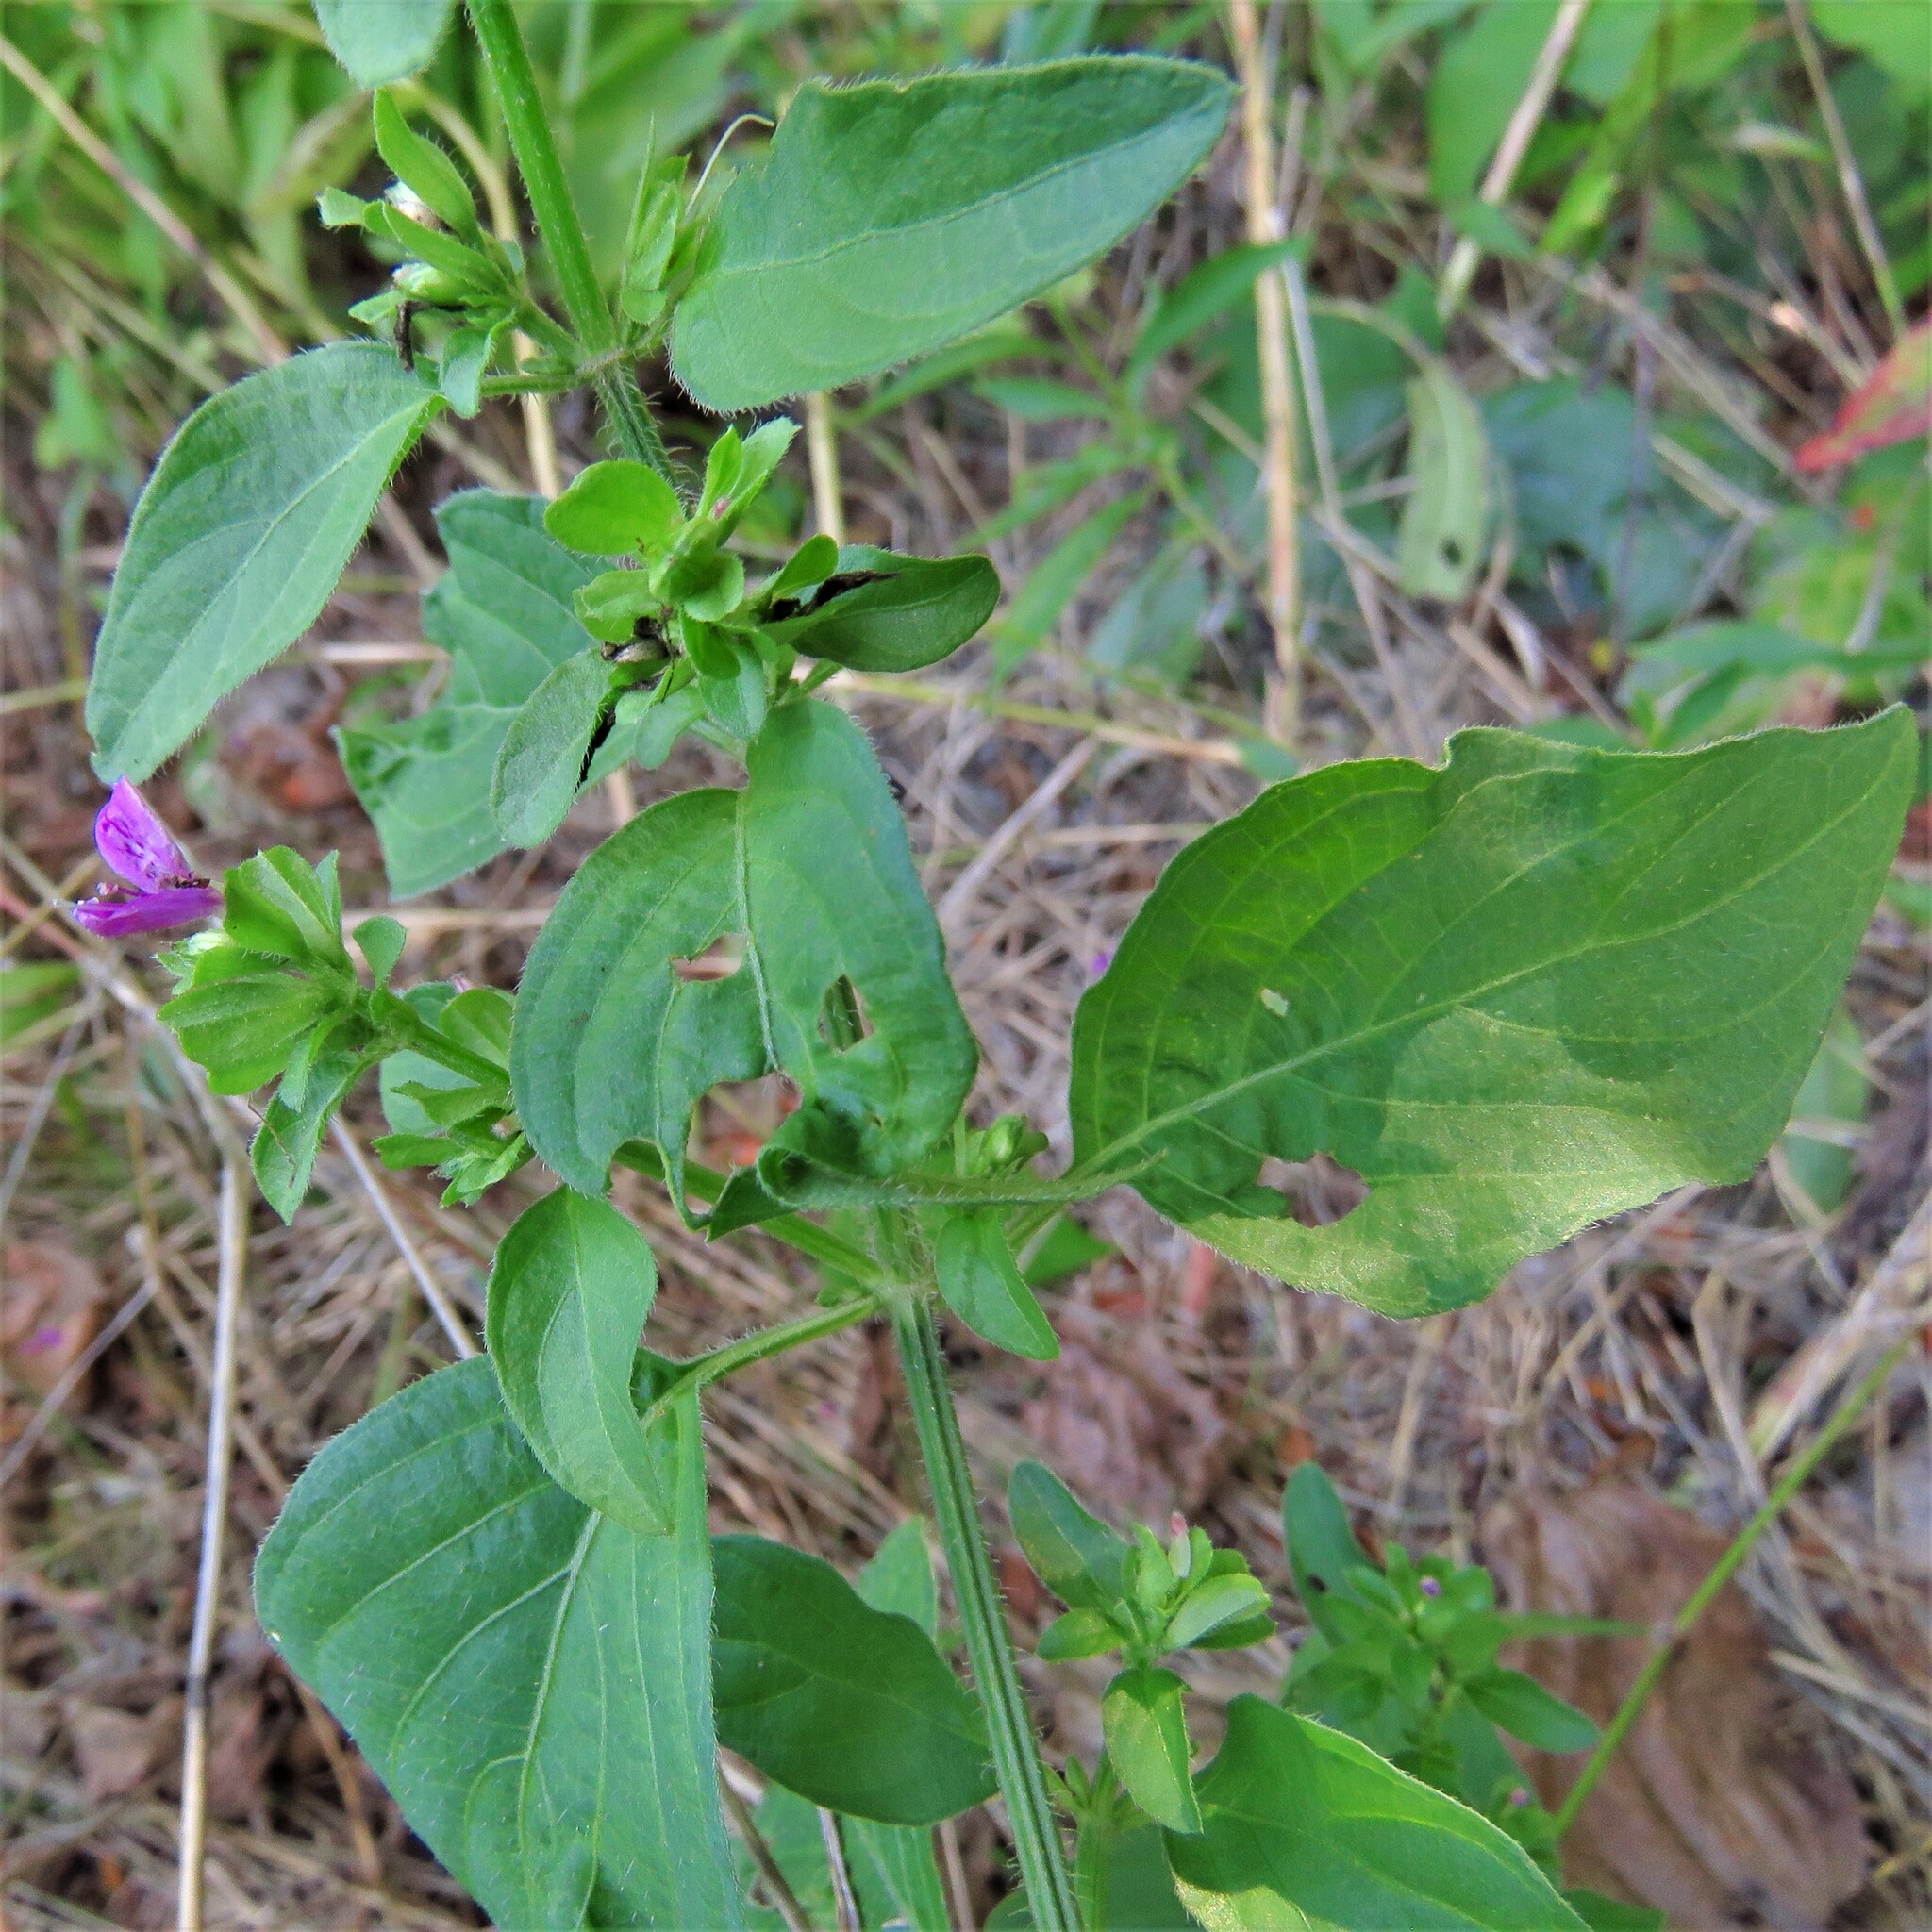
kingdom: Plantae
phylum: Tracheophyta
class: Magnoliopsida
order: Lamiales
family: Acanthaceae
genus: Dicliptera
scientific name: Dicliptera brachiata
